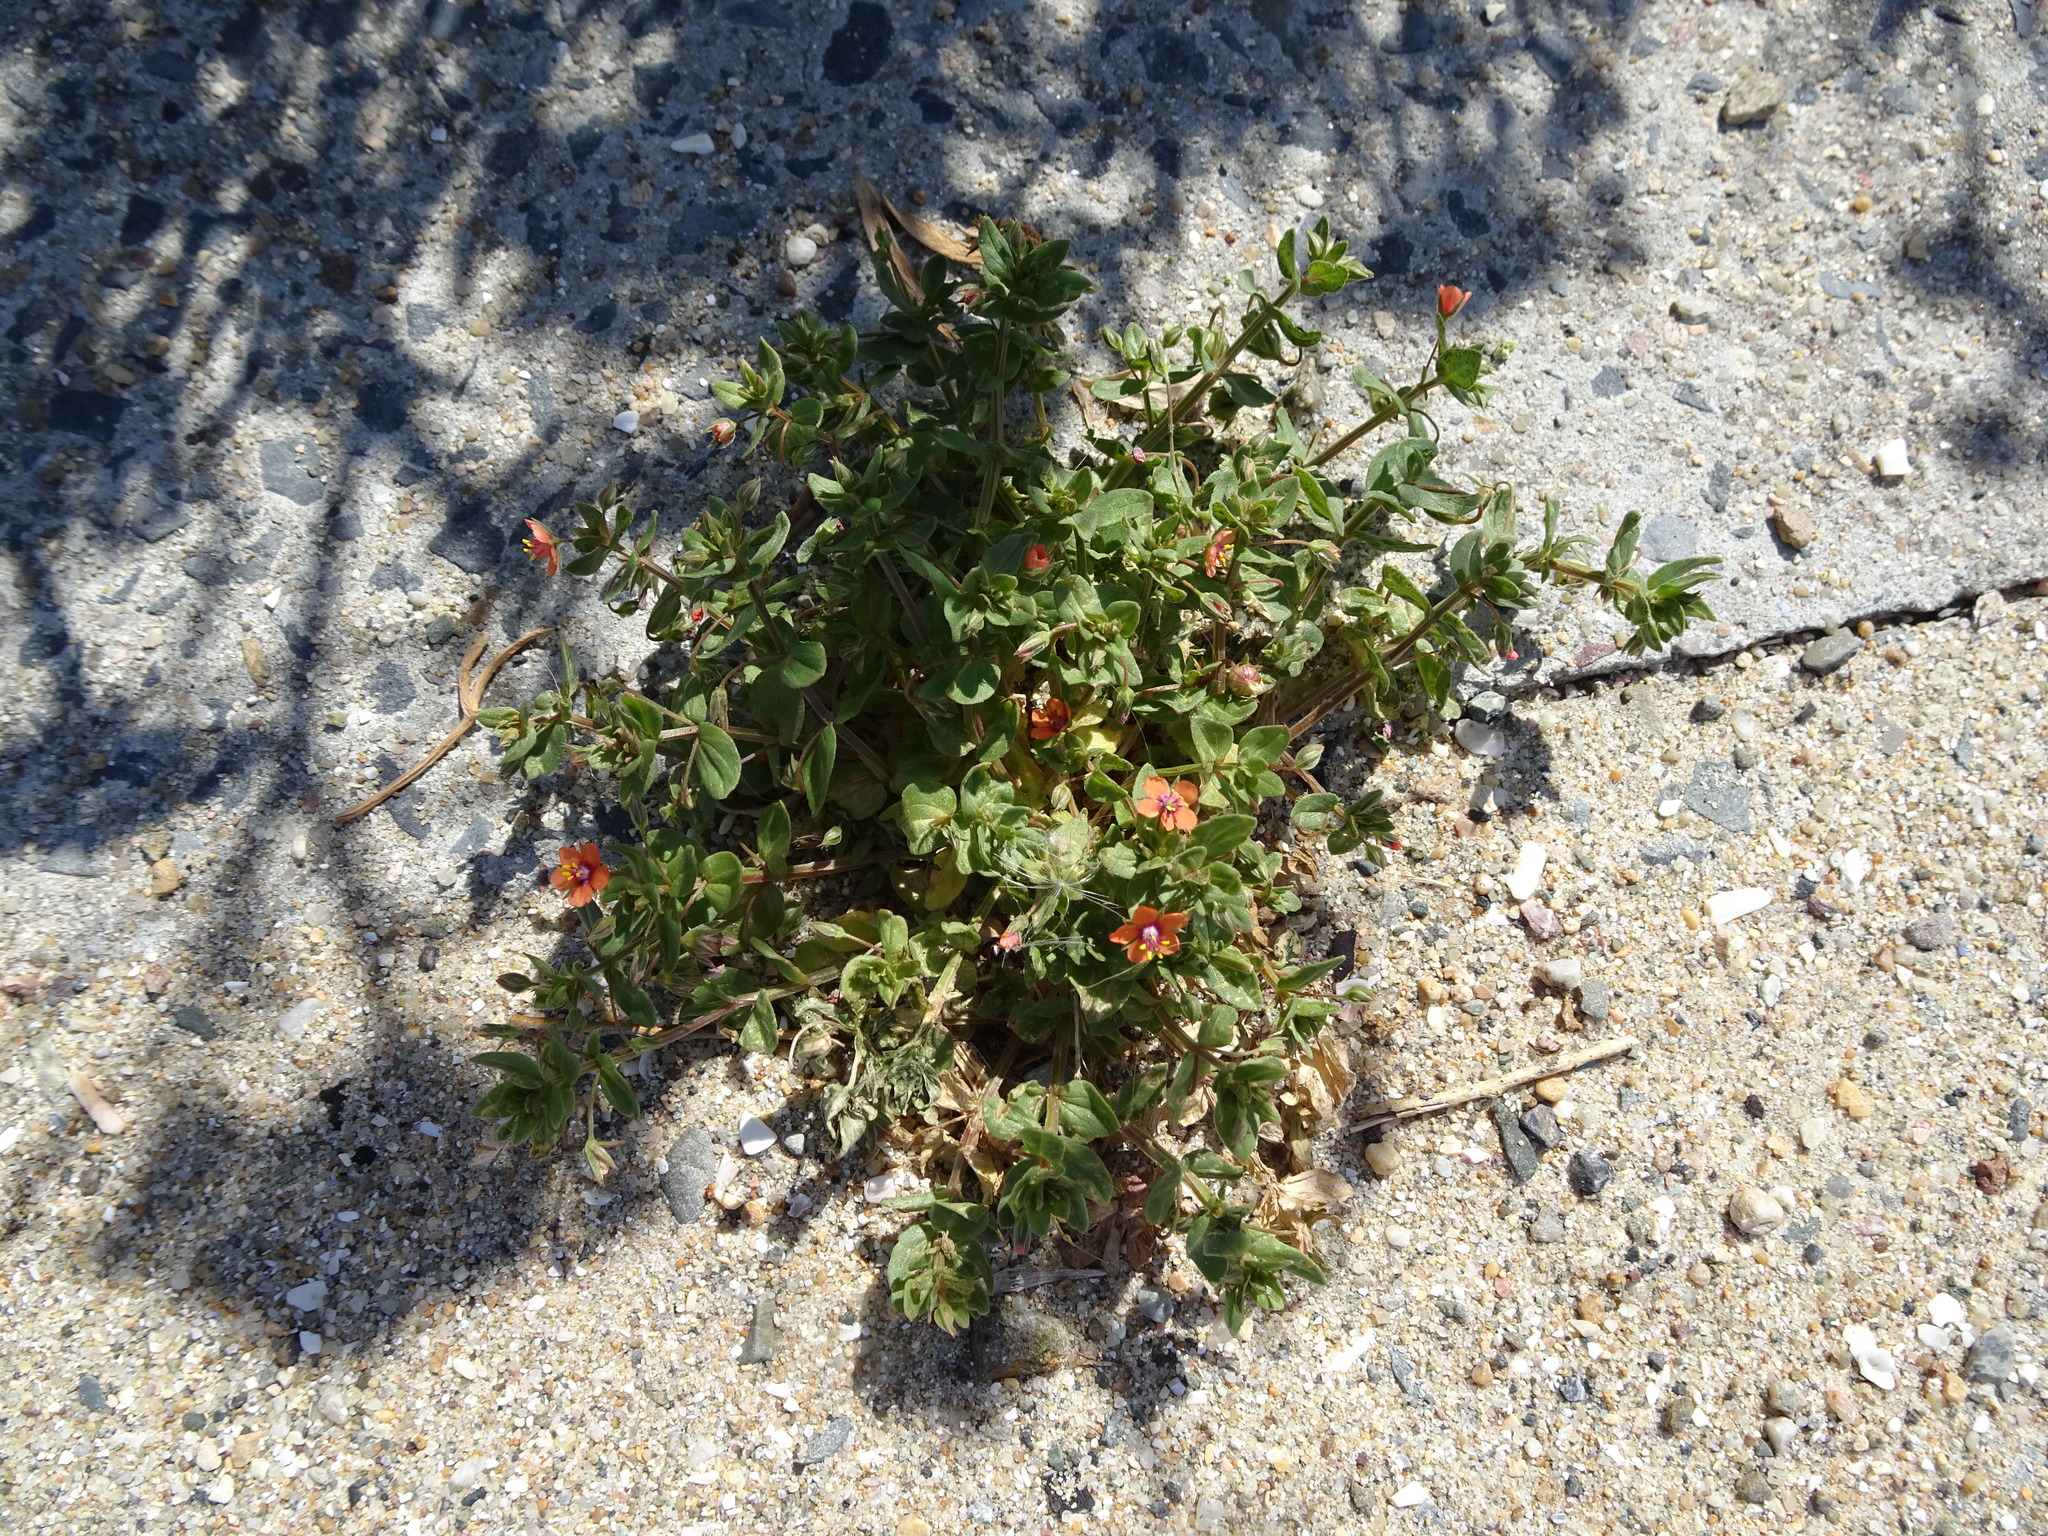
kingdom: Plantae
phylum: Tracheophyta
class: Magnoliopsida
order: Ericales
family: Primulaceae
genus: Lysimachia
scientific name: Lysimachia arvensis
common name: Scarlet pimpernel
